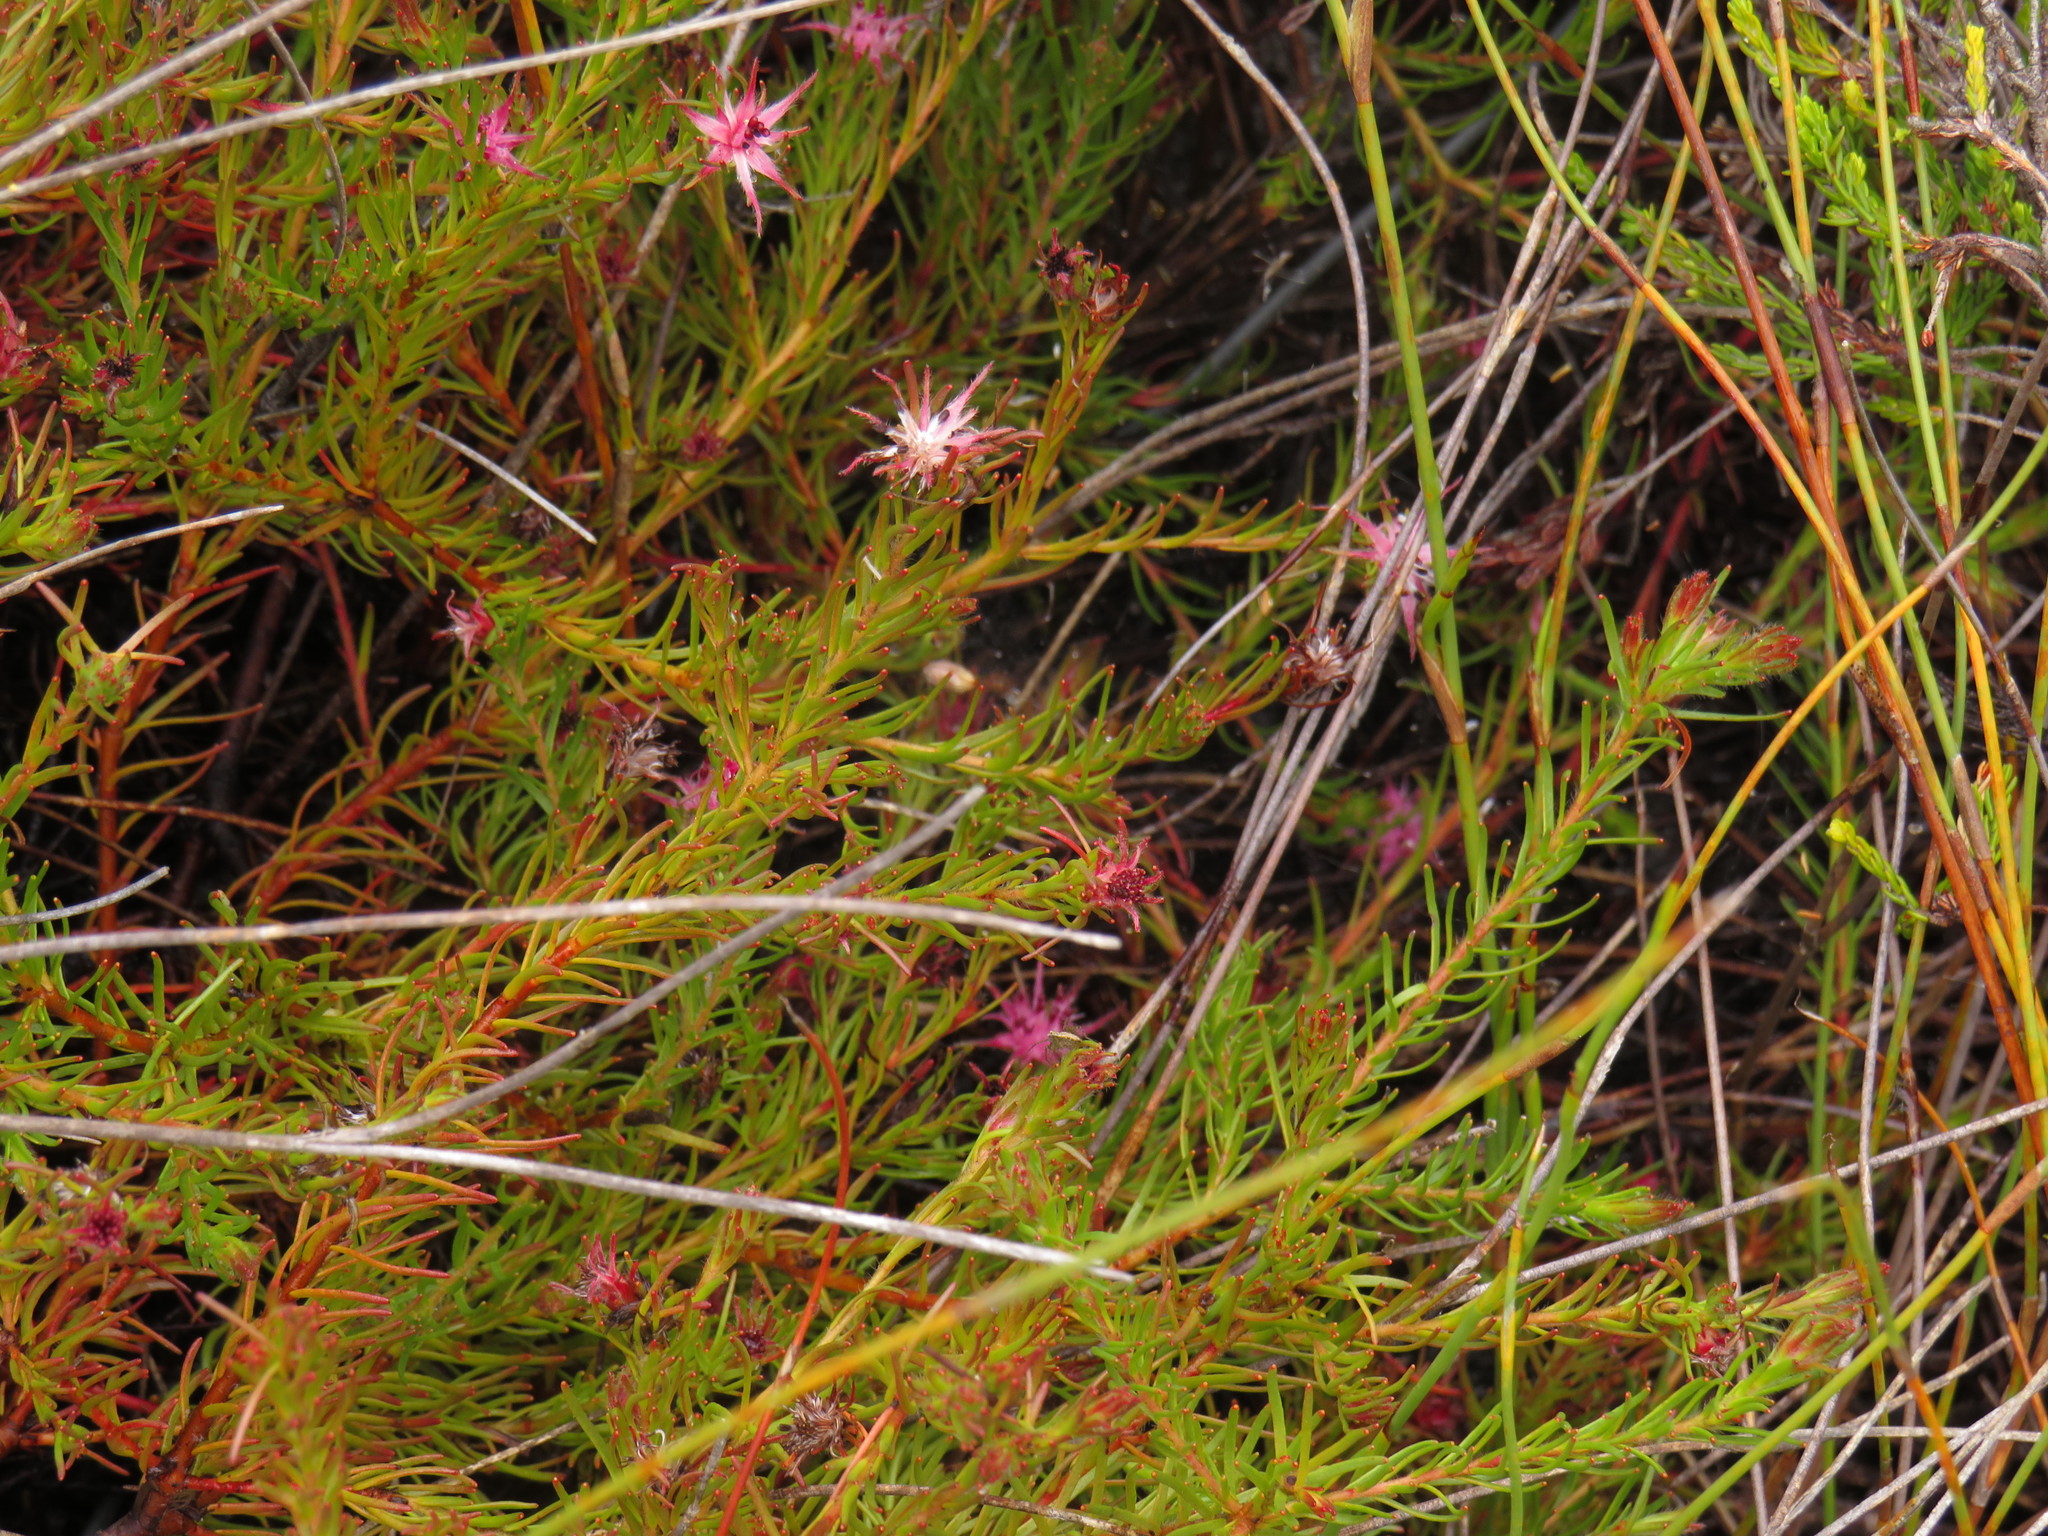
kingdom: Plantae
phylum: Tracheophyta
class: Magnoliopsida
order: Proteales
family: Proteaceae
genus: Diastella
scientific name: Diastella proteoides
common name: Flats silkypuff
